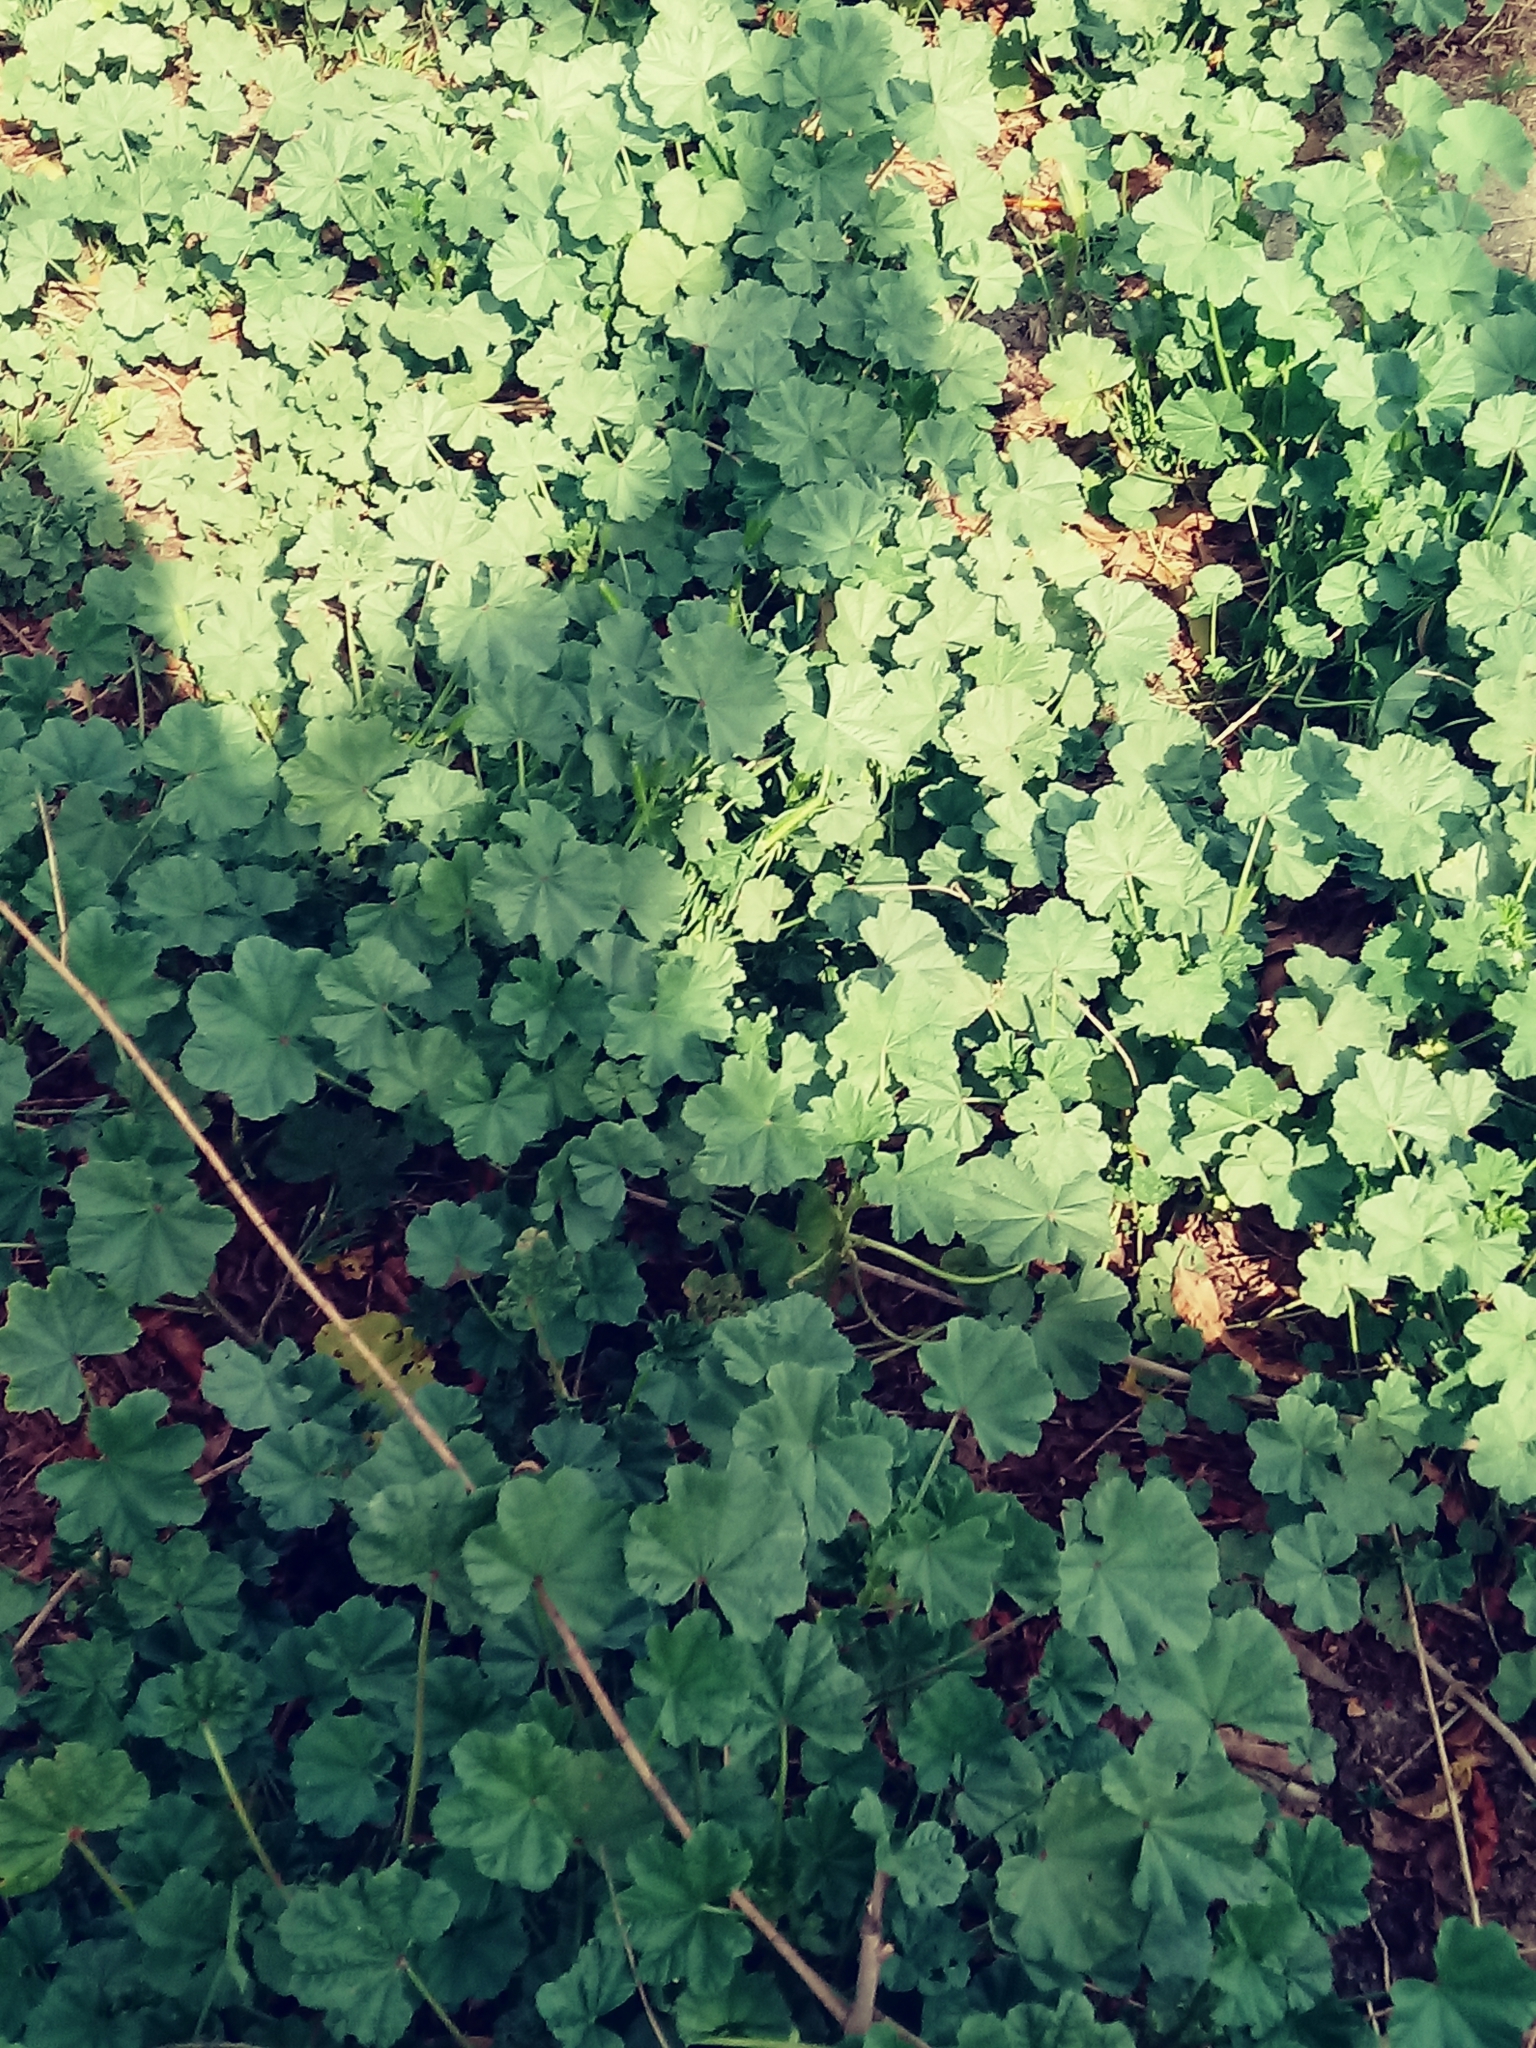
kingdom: Plantae
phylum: Tracheophyta
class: Magnoliopsida
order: Malvales
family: Malvaceae
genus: Malva
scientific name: Malva parviflora
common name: Least mallow
